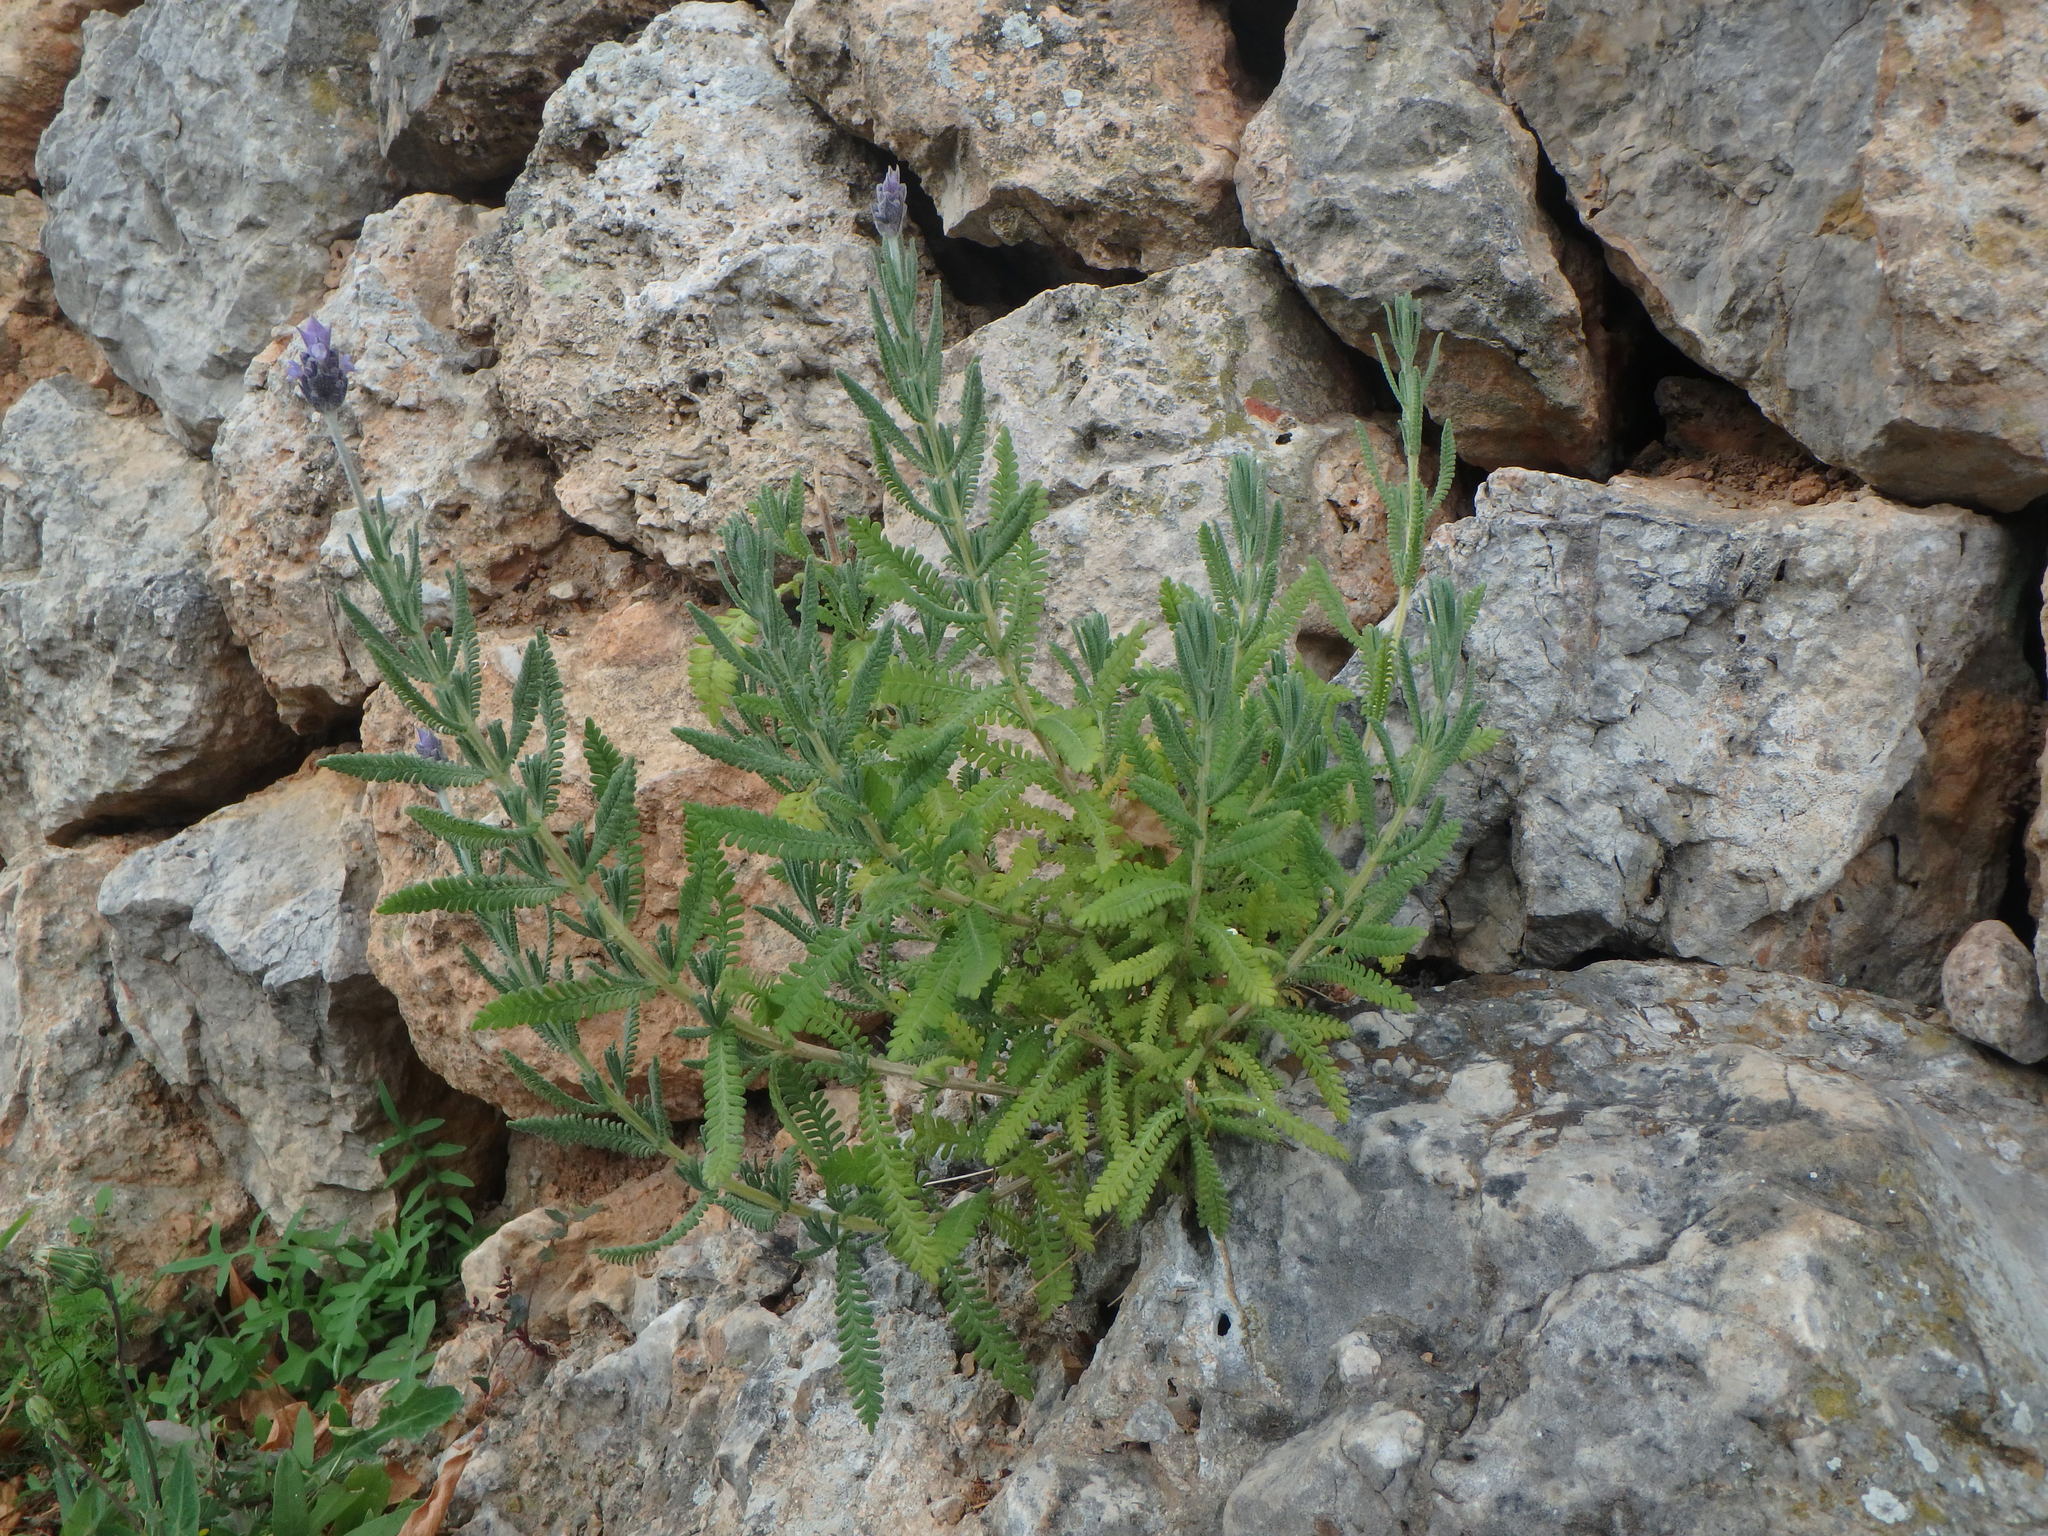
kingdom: Plantae
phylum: Tracheophyta
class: Magnoliopsida
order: Lamiales
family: Lamiaceae
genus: Lavandula
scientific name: Lavandula dentata
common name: French lavender
